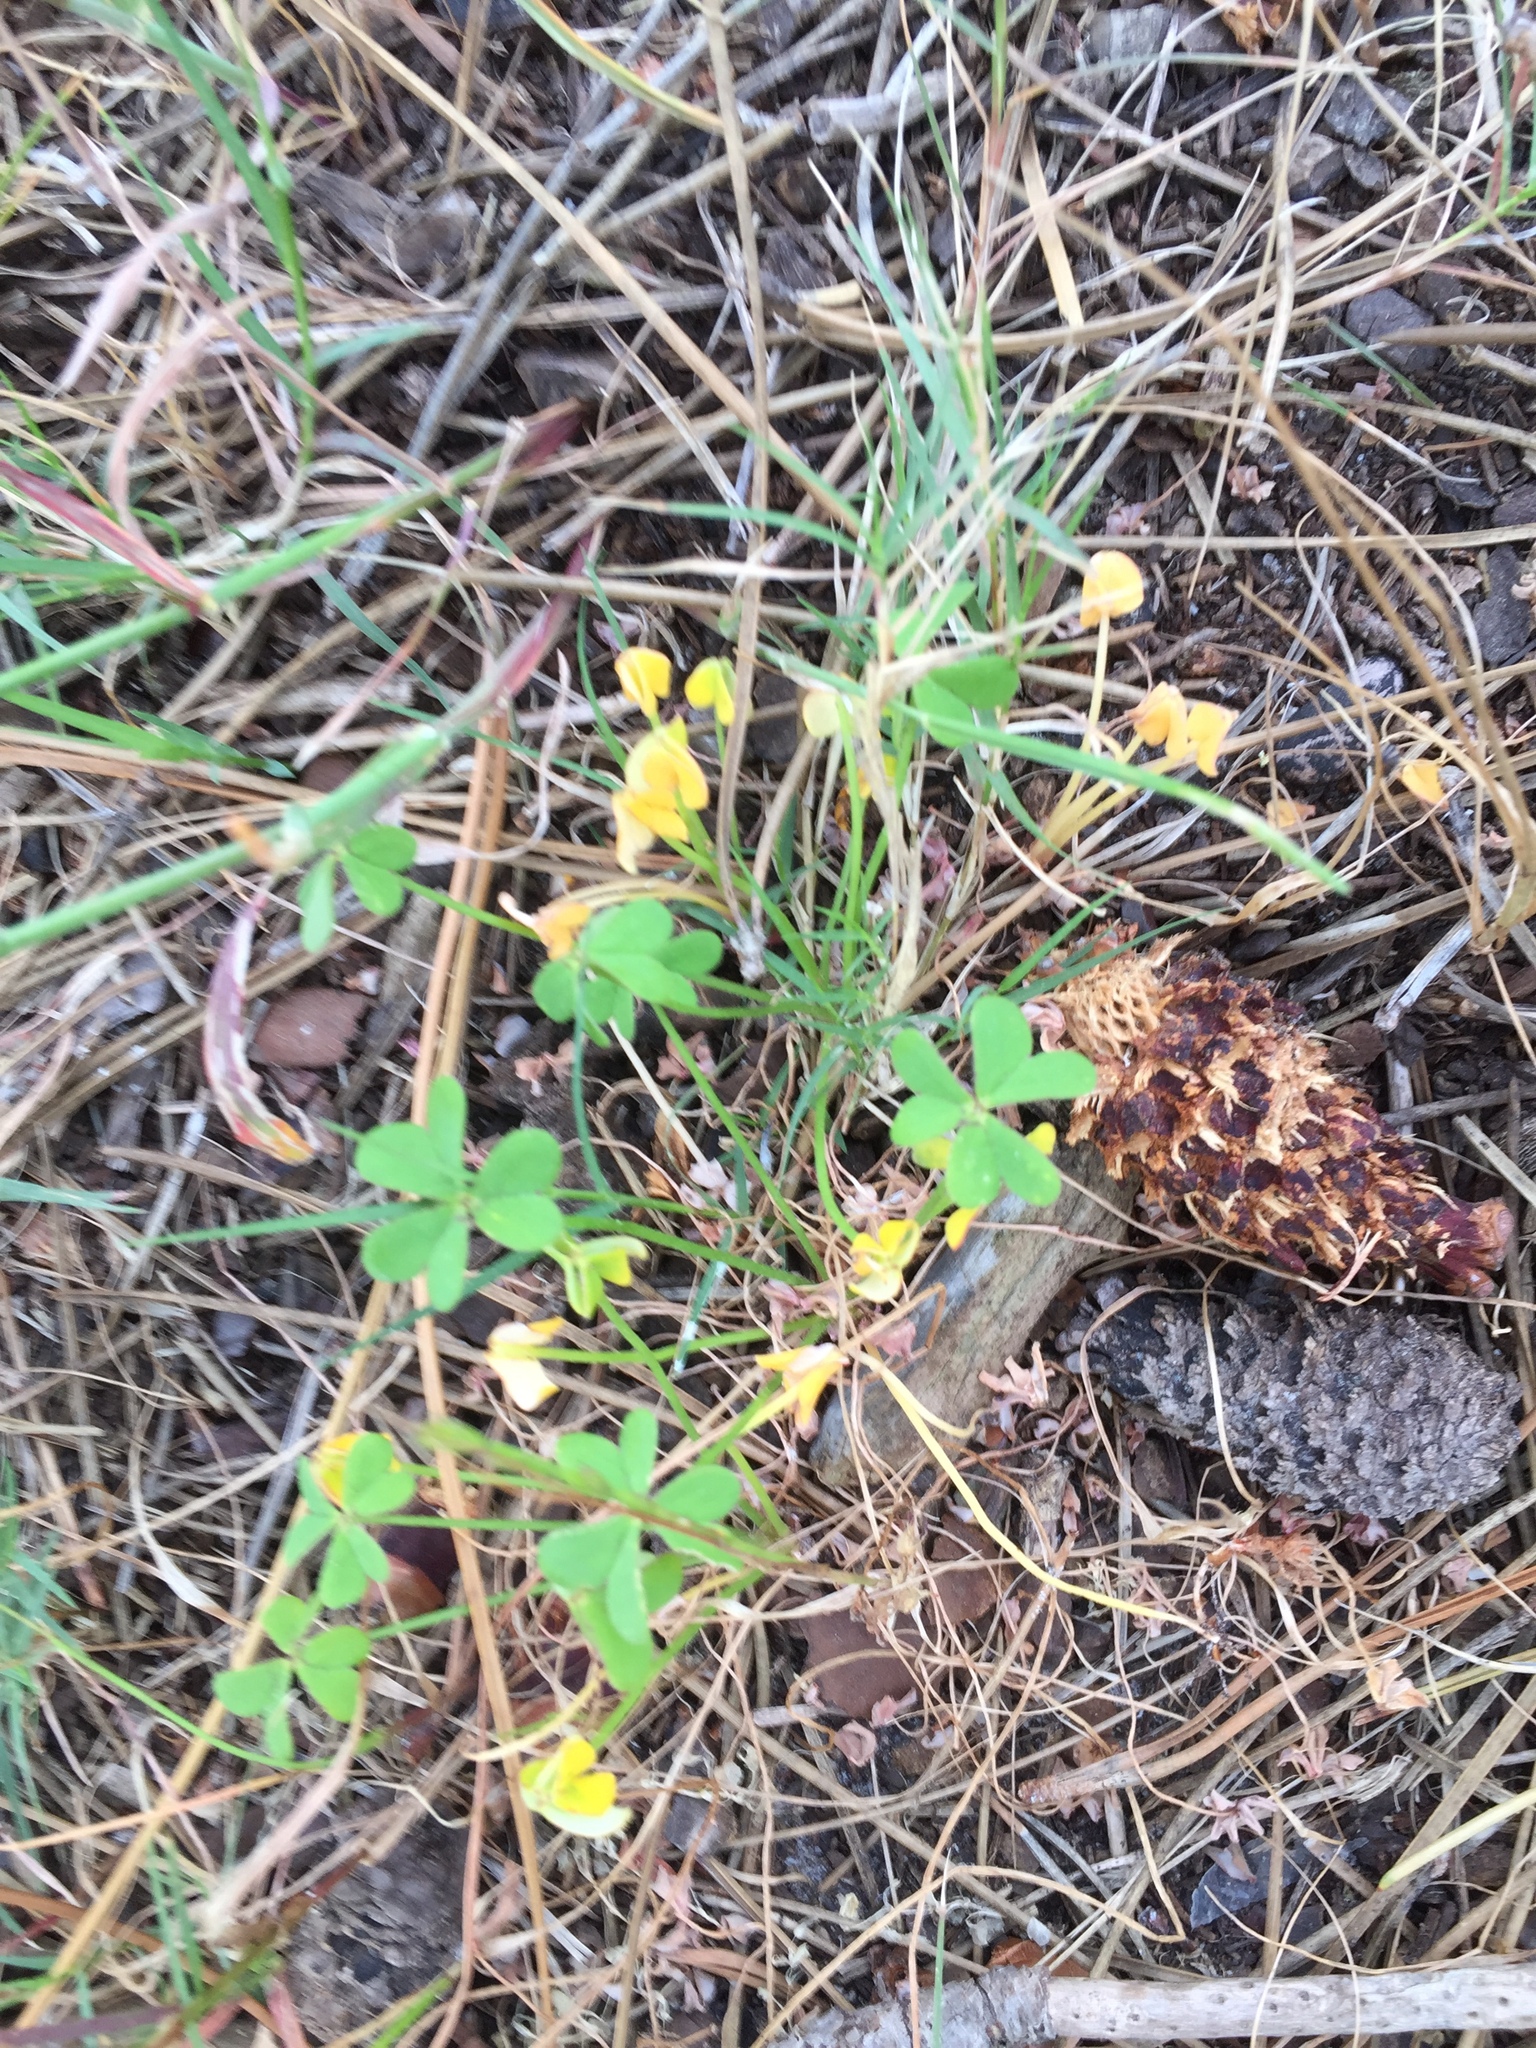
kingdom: Plantae
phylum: Tracheophyta
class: Magnoliopsida
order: Oxalidales
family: Oxalidaceae
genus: Oxalis
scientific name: Oxalis pes-caprae
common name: Bermuda-buttercup
